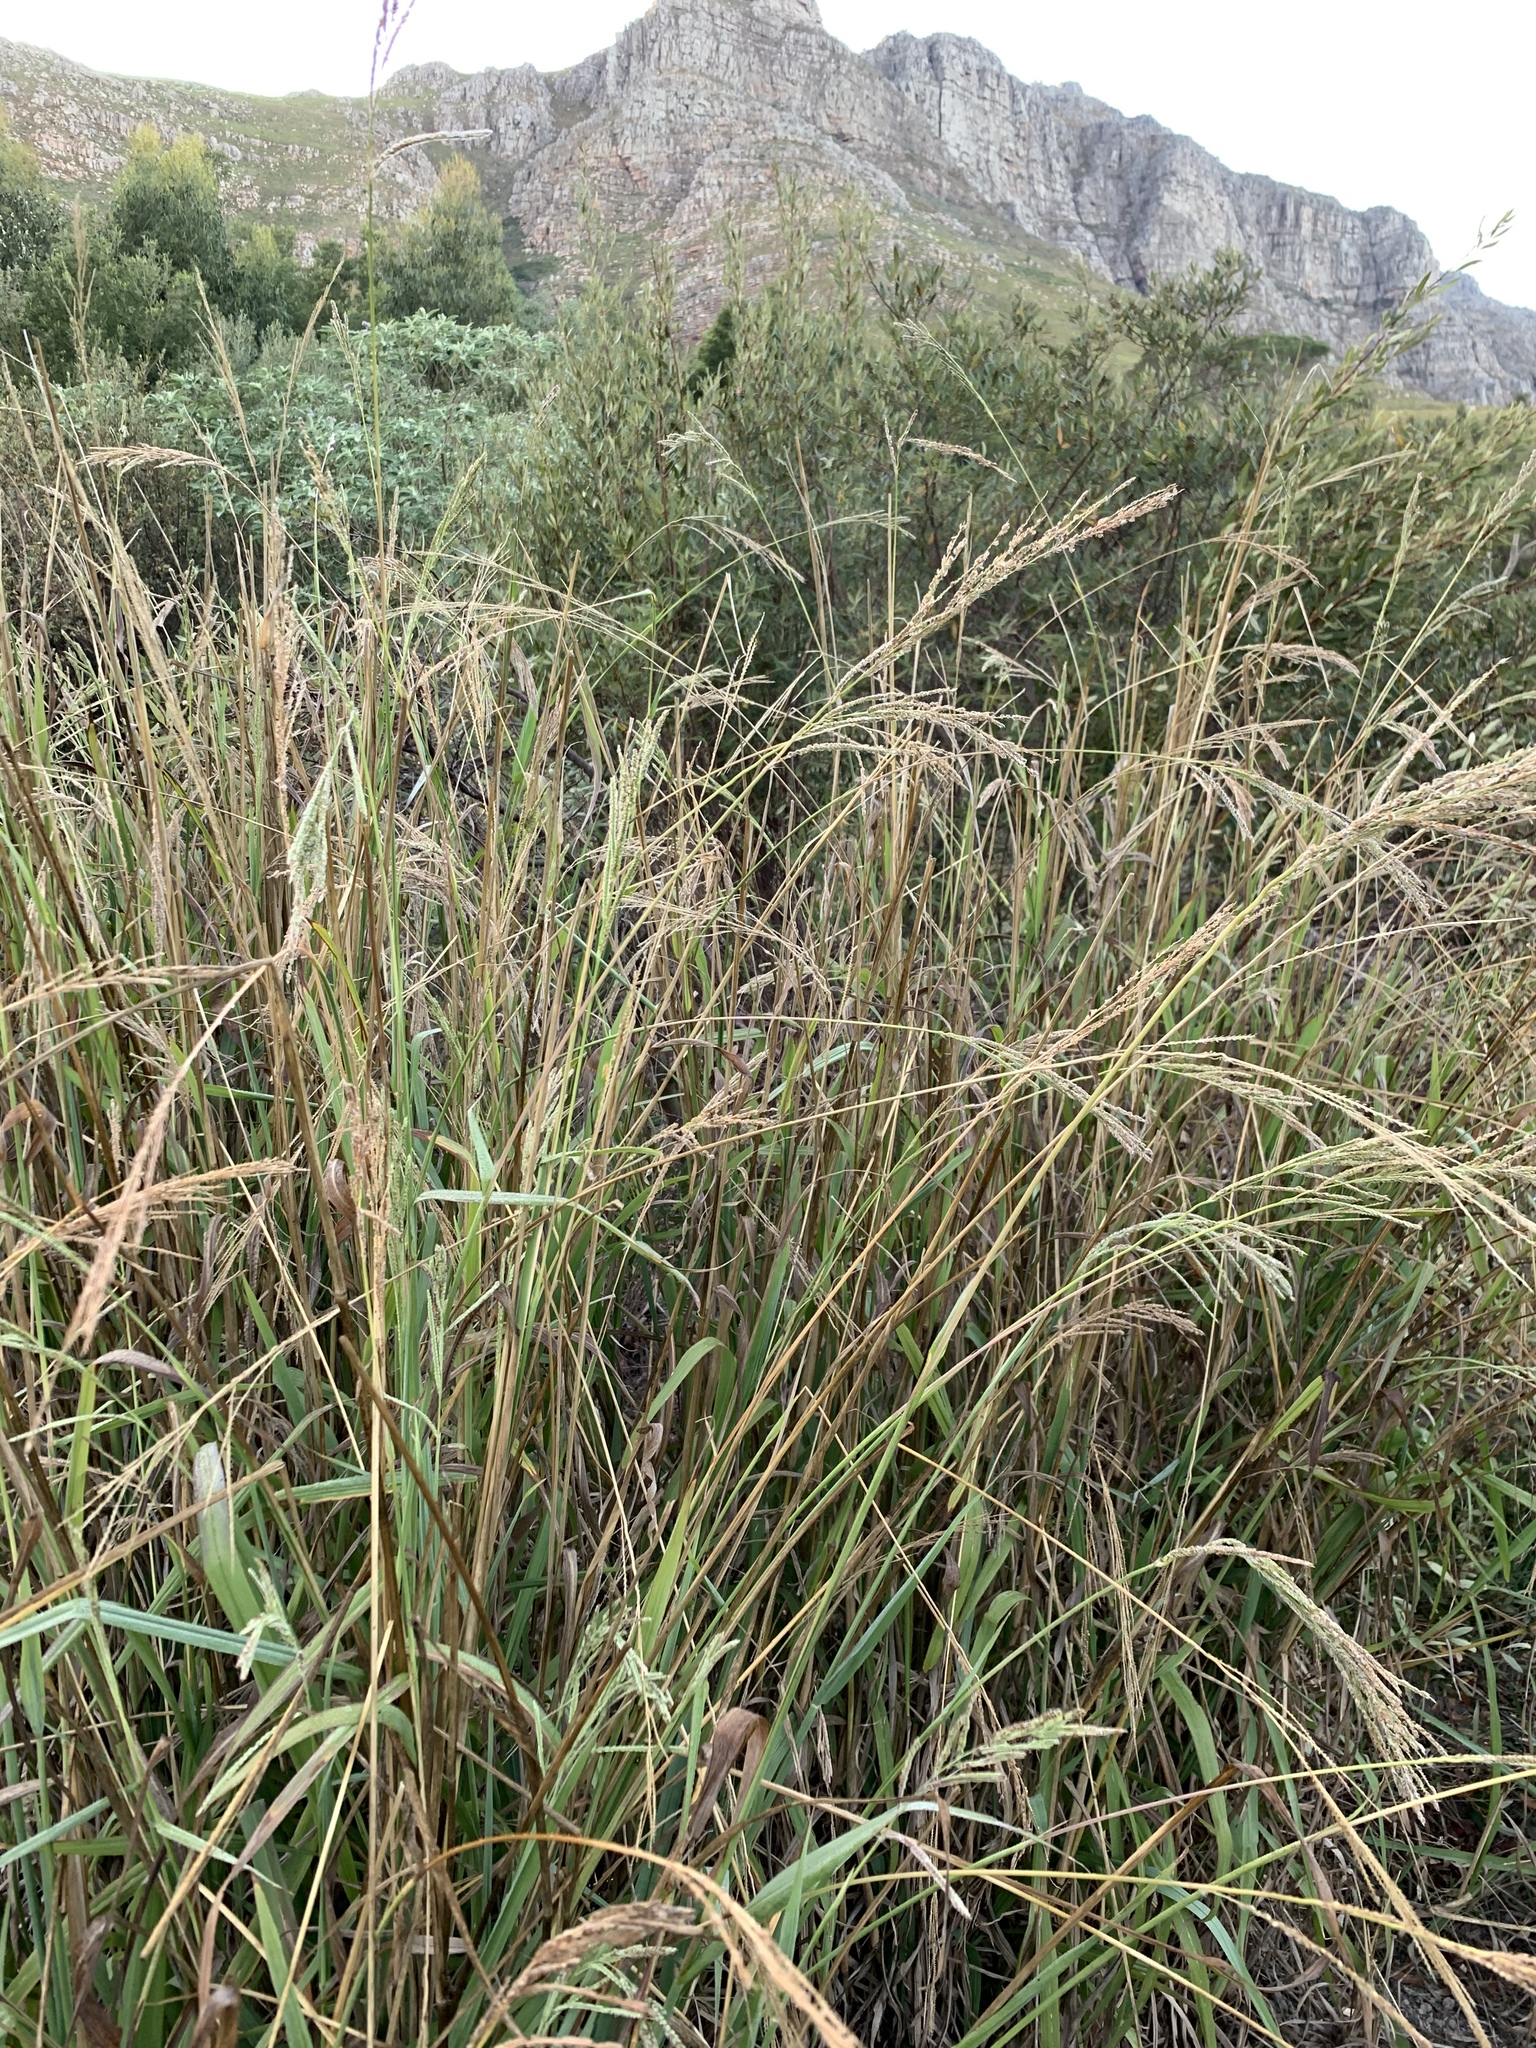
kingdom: Plantae
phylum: Tracheophyta
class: Liliopsida
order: Poales
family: Poaceae
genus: Paspalum
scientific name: Paspalum urvillei
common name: Vasey's grass
